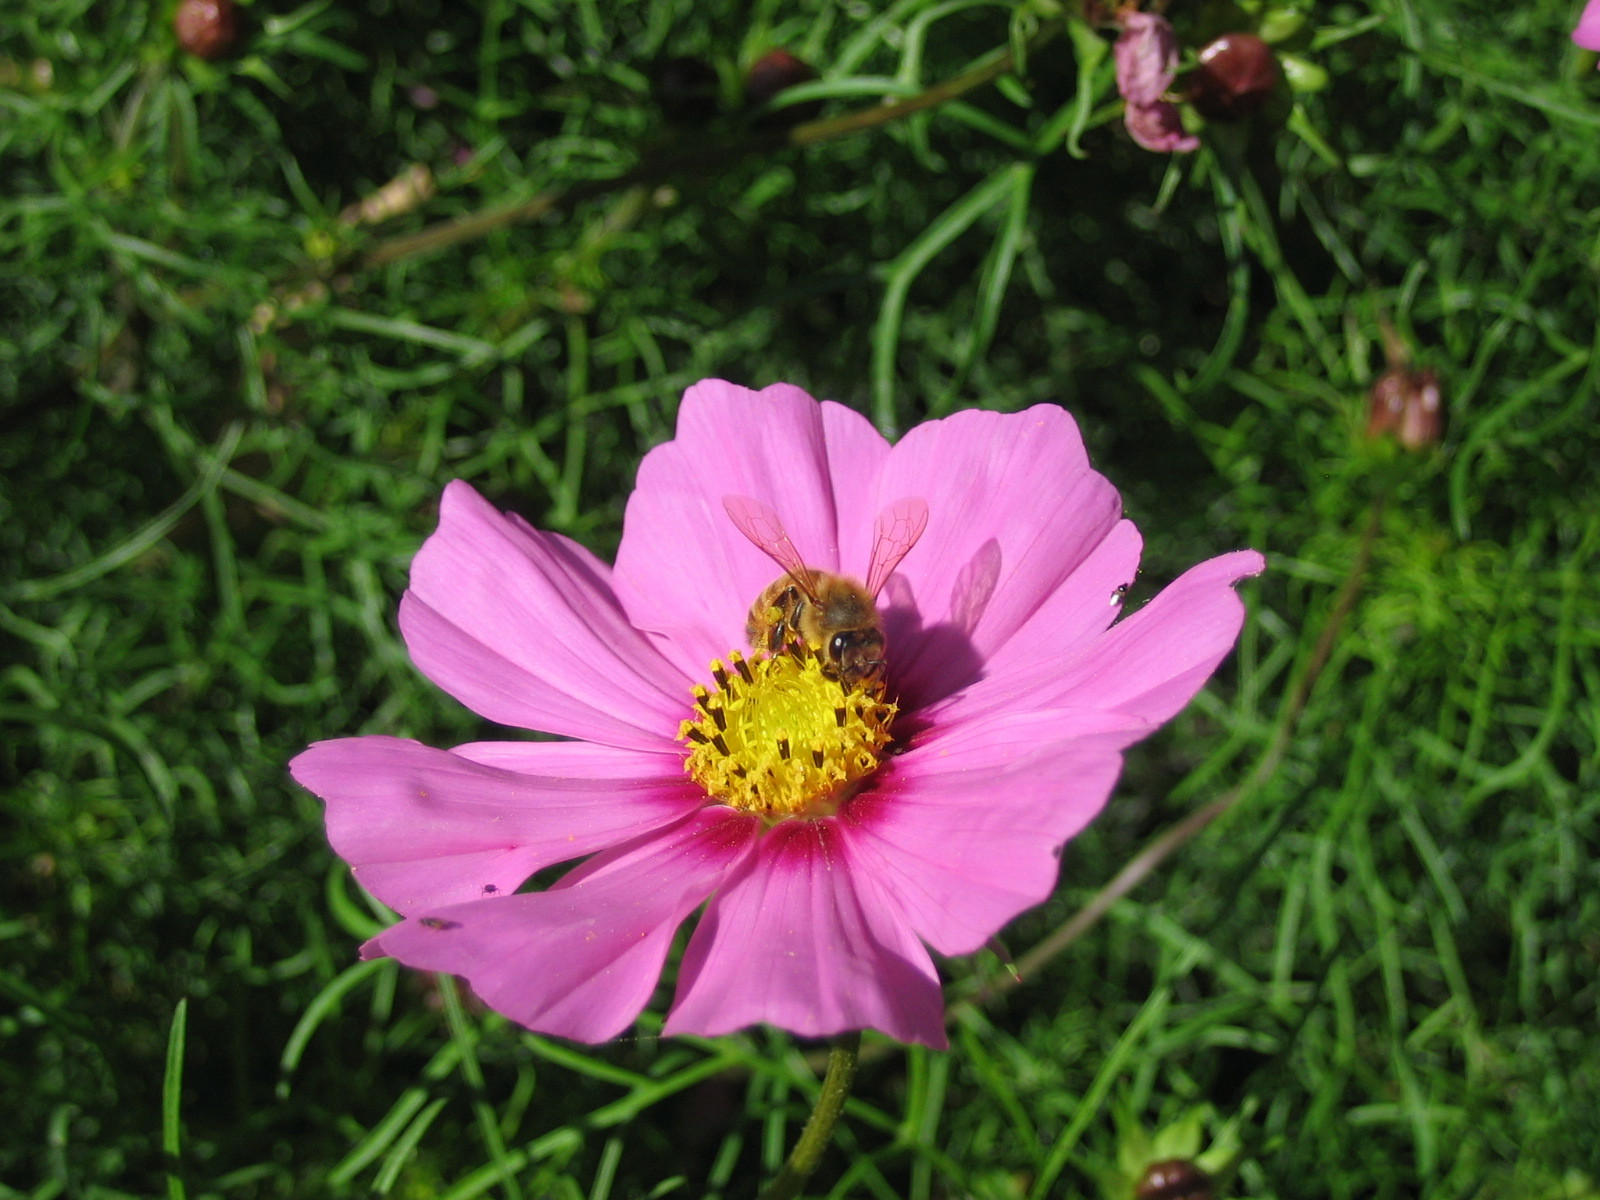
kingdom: Animalia
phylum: Arthropoda
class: Insecta
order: Hymenoptera
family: Apidae
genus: Apis
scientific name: Apis mellifera
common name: Honey bee
